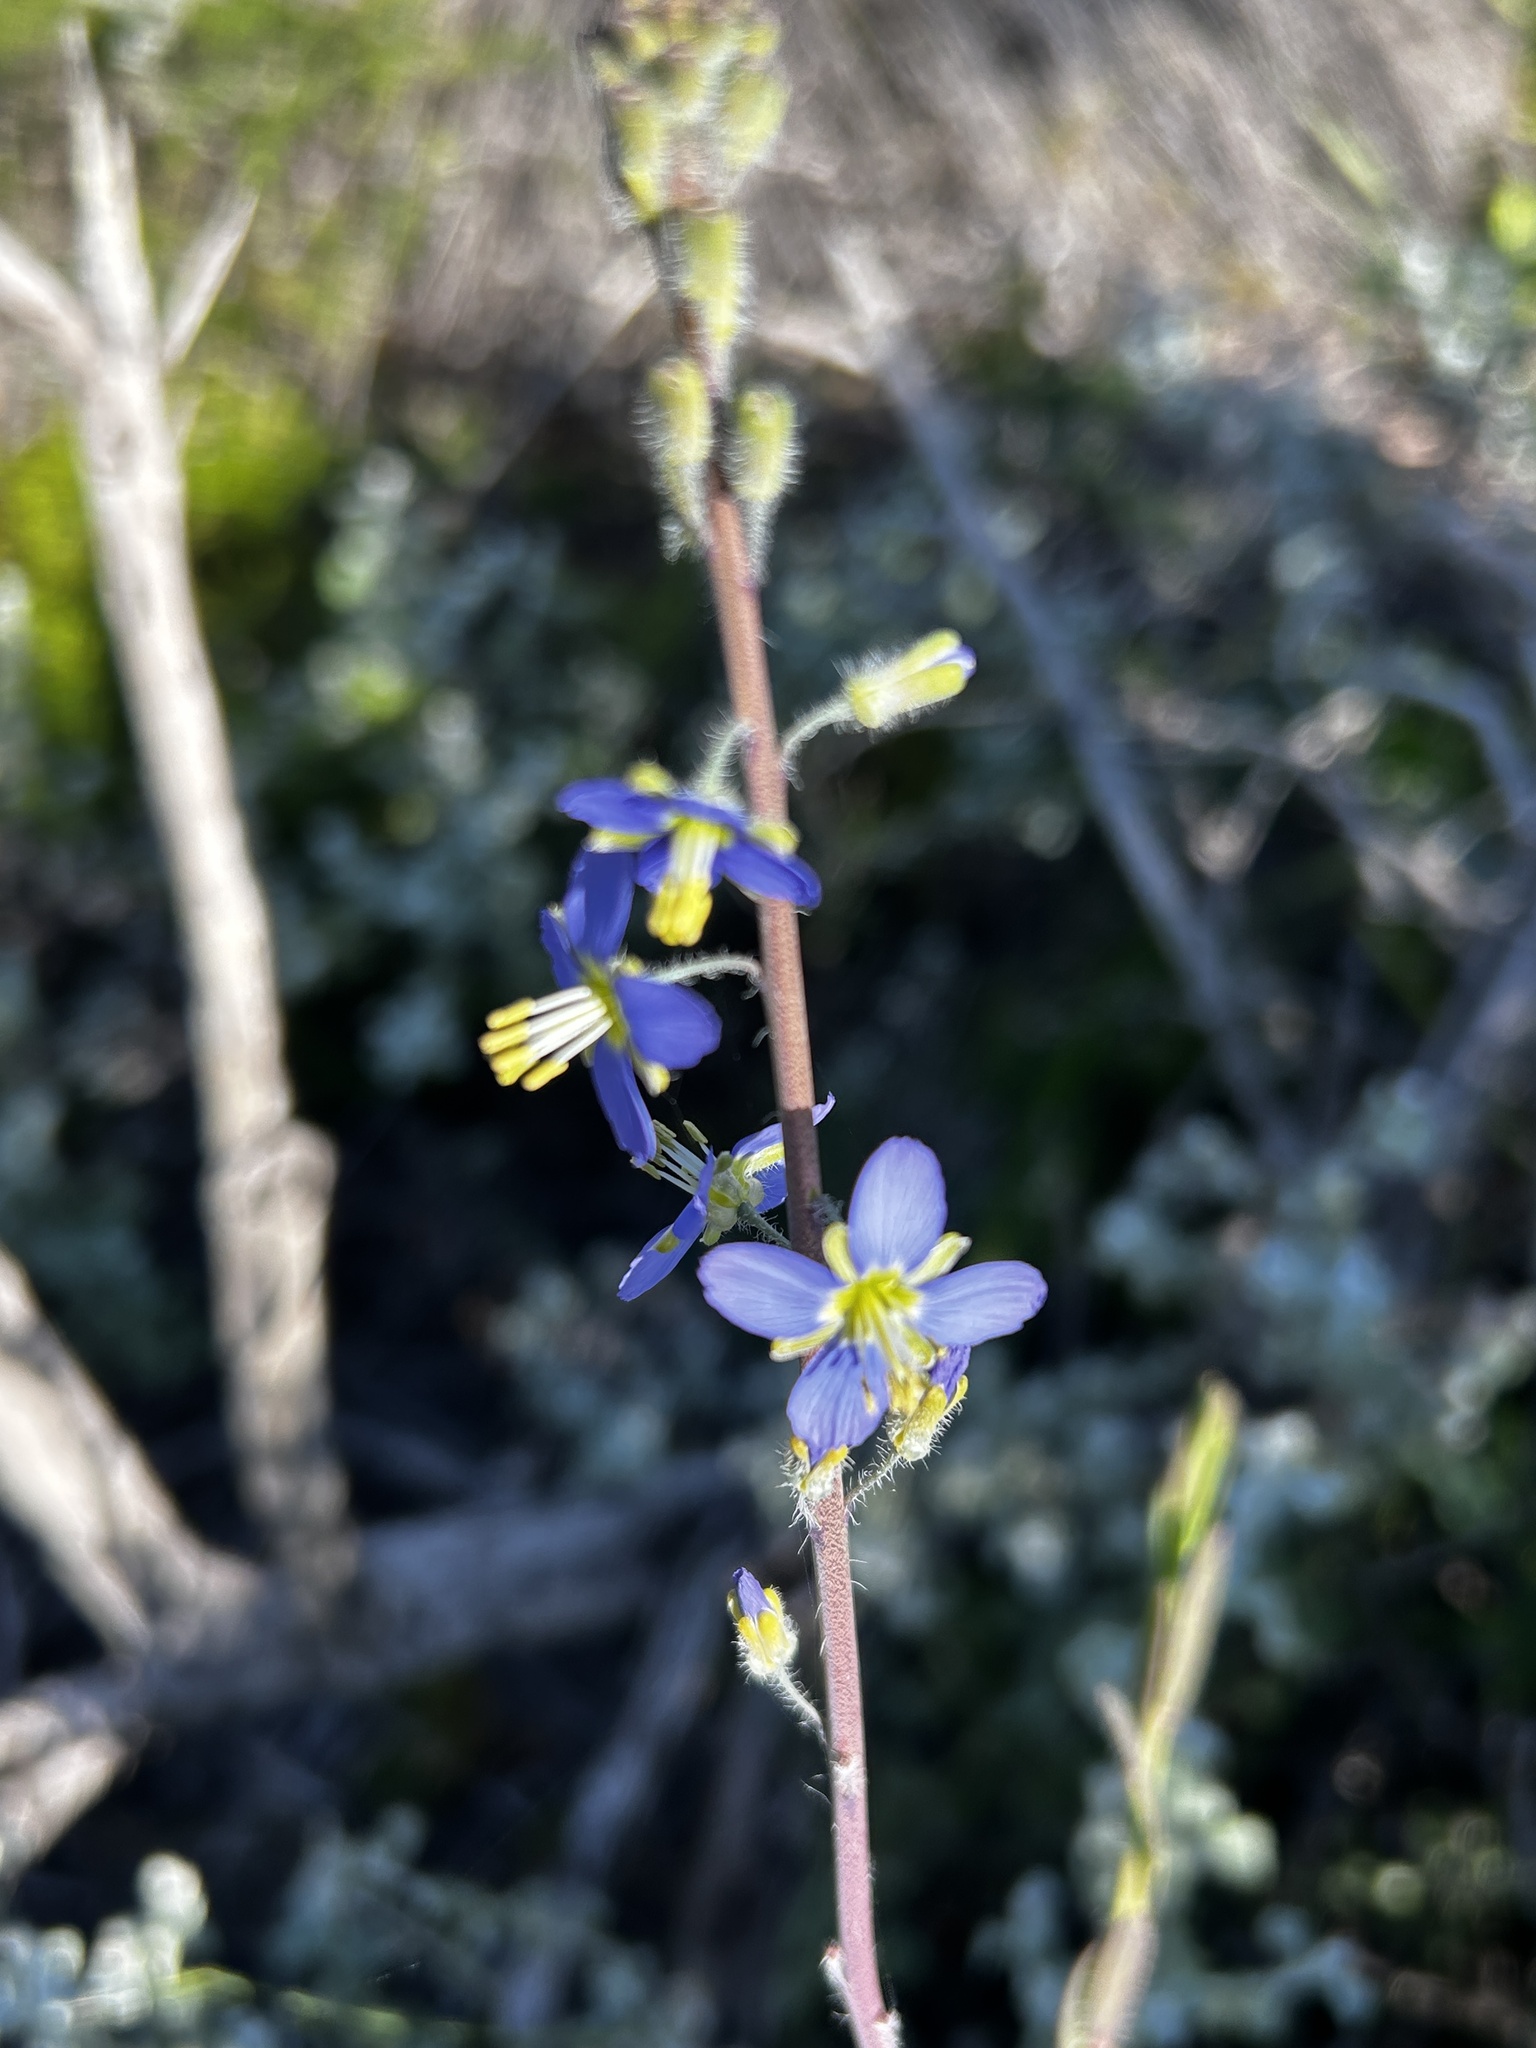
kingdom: Plantae
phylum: Tracheophyta
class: Magnoliopsida
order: Brassicales
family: Brassicaceae
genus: Heliophila
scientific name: Heliophila linearis
